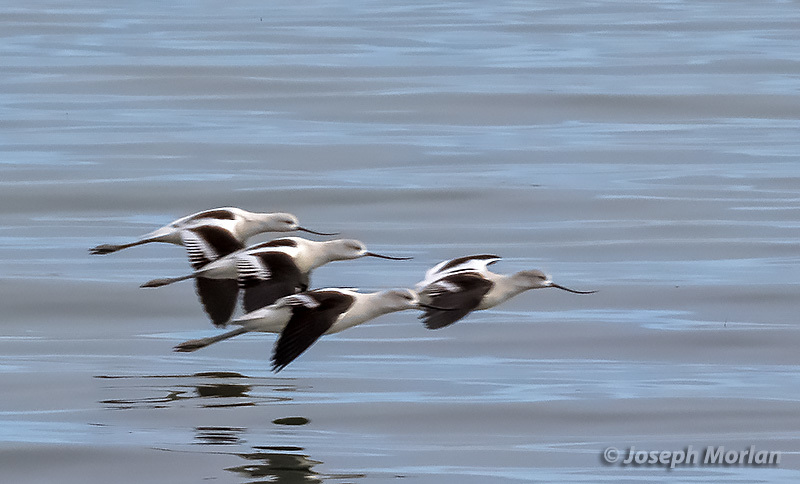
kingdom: Animalia
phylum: Chordata
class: Aves
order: Charadriiformes
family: Recurvirostridae
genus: Recurvirostra
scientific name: Recurvirostra americana
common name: American avocet
